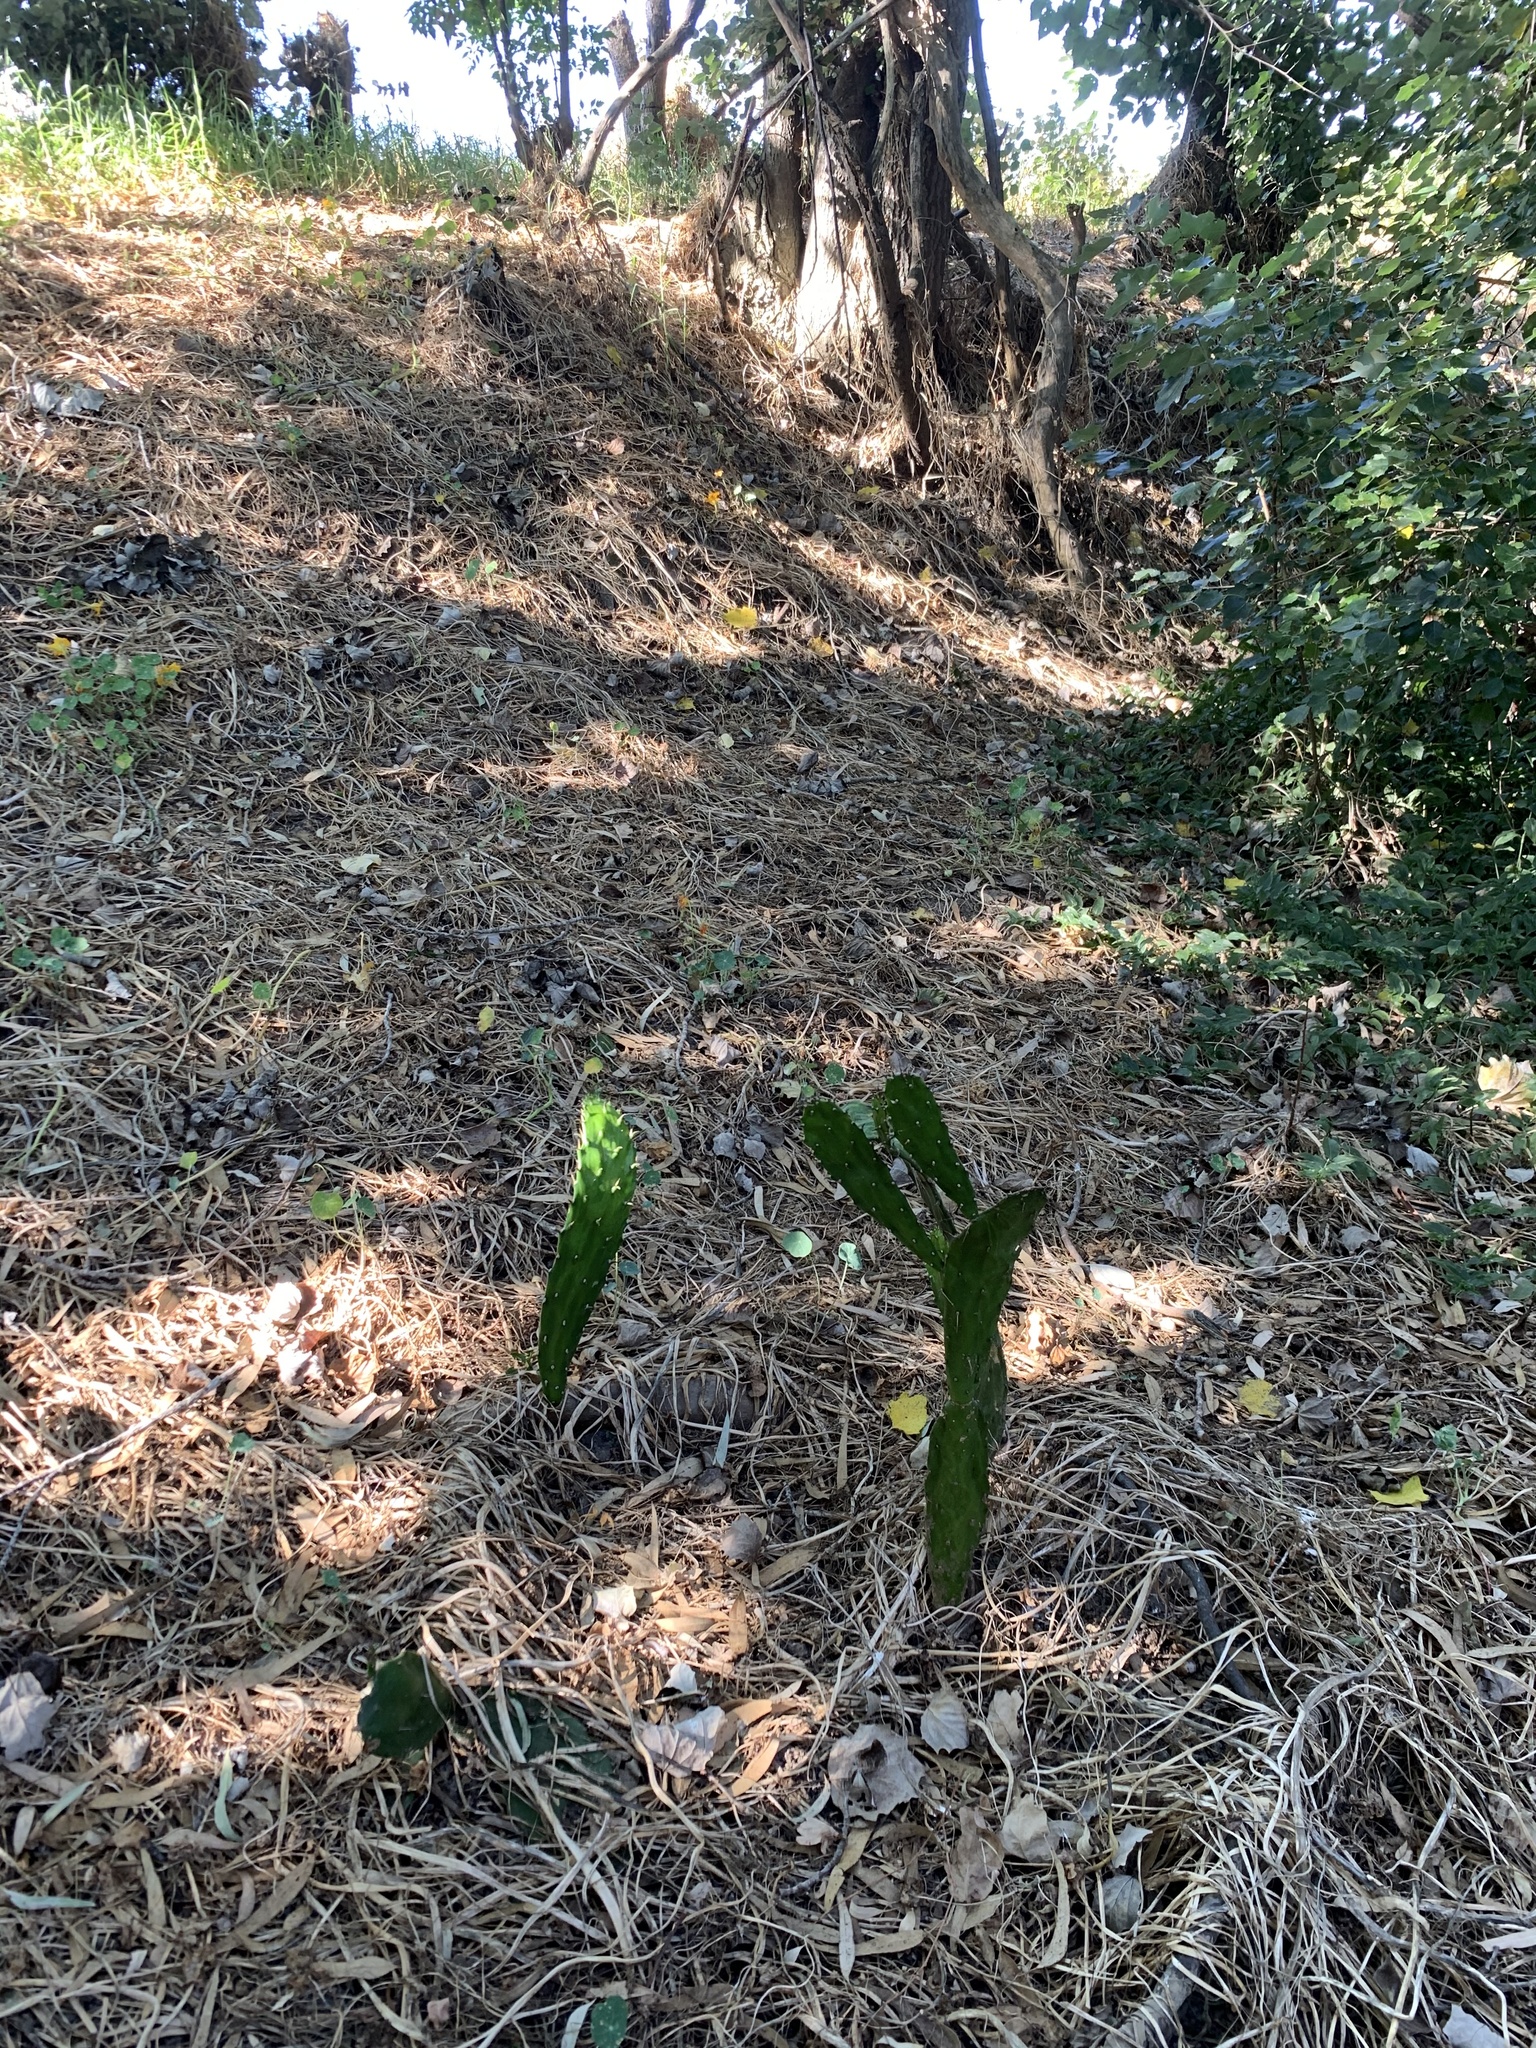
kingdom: Plantae
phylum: Tracheophyta
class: Magnoliopsida
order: Caryophyllales
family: Cactaceae
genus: Opuntia
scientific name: Opuntia monacantha
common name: Common pricklypear
